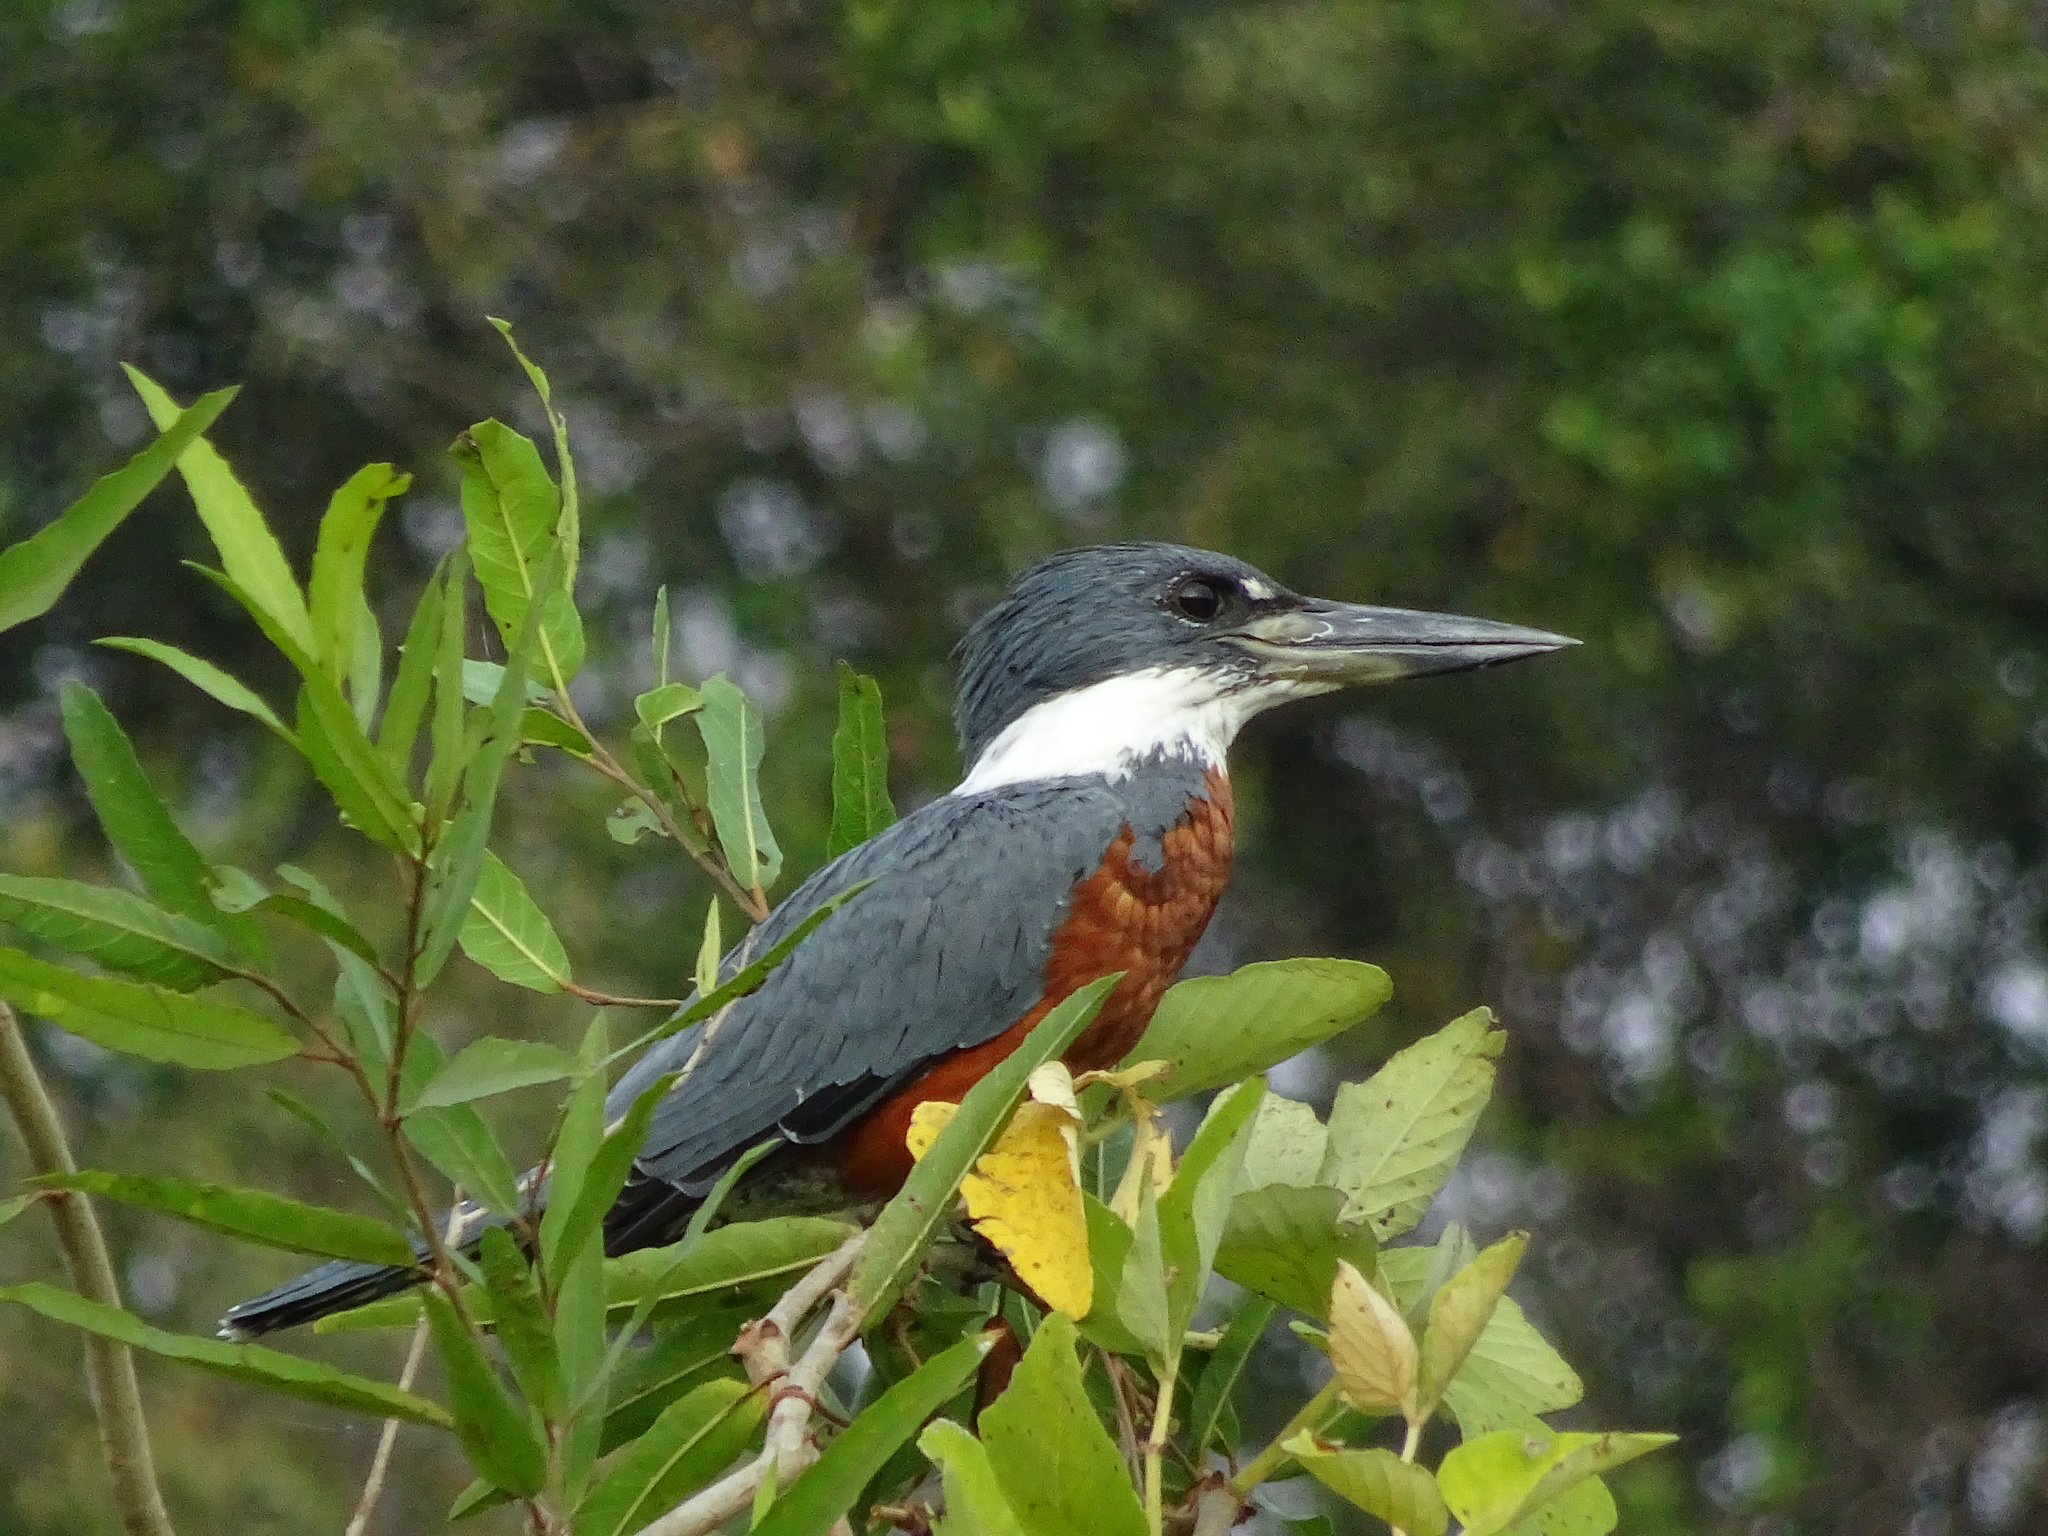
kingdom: Animalia
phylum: Chordata
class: Aves
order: Coraciiformes
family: Alcedinidae
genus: Megaceryle
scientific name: Megaceryle torquata
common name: Ringed kingfisher
